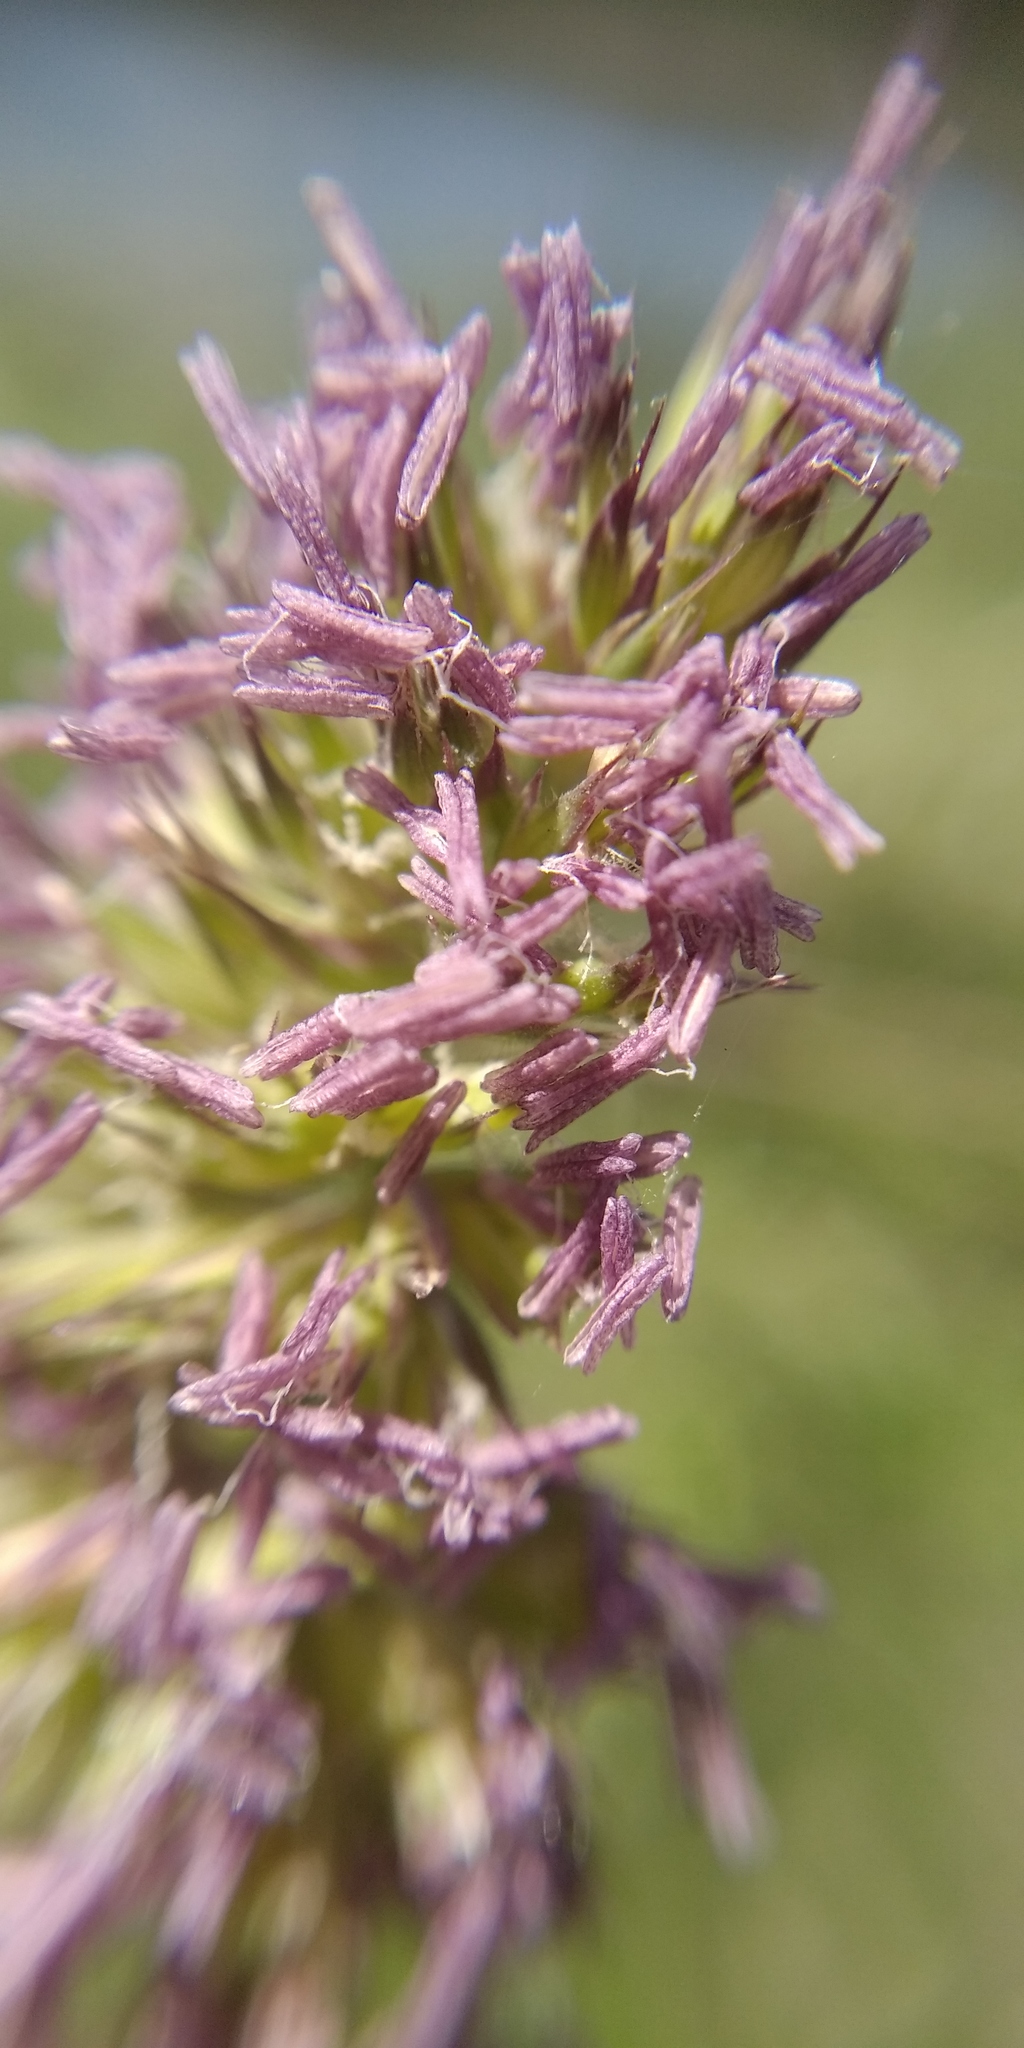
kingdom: Plantae
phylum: Tracheophyta
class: Liliopsida
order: Poales
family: Poaceae
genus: Dactylis
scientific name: Dactylis glomerata
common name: Orchardgrass
